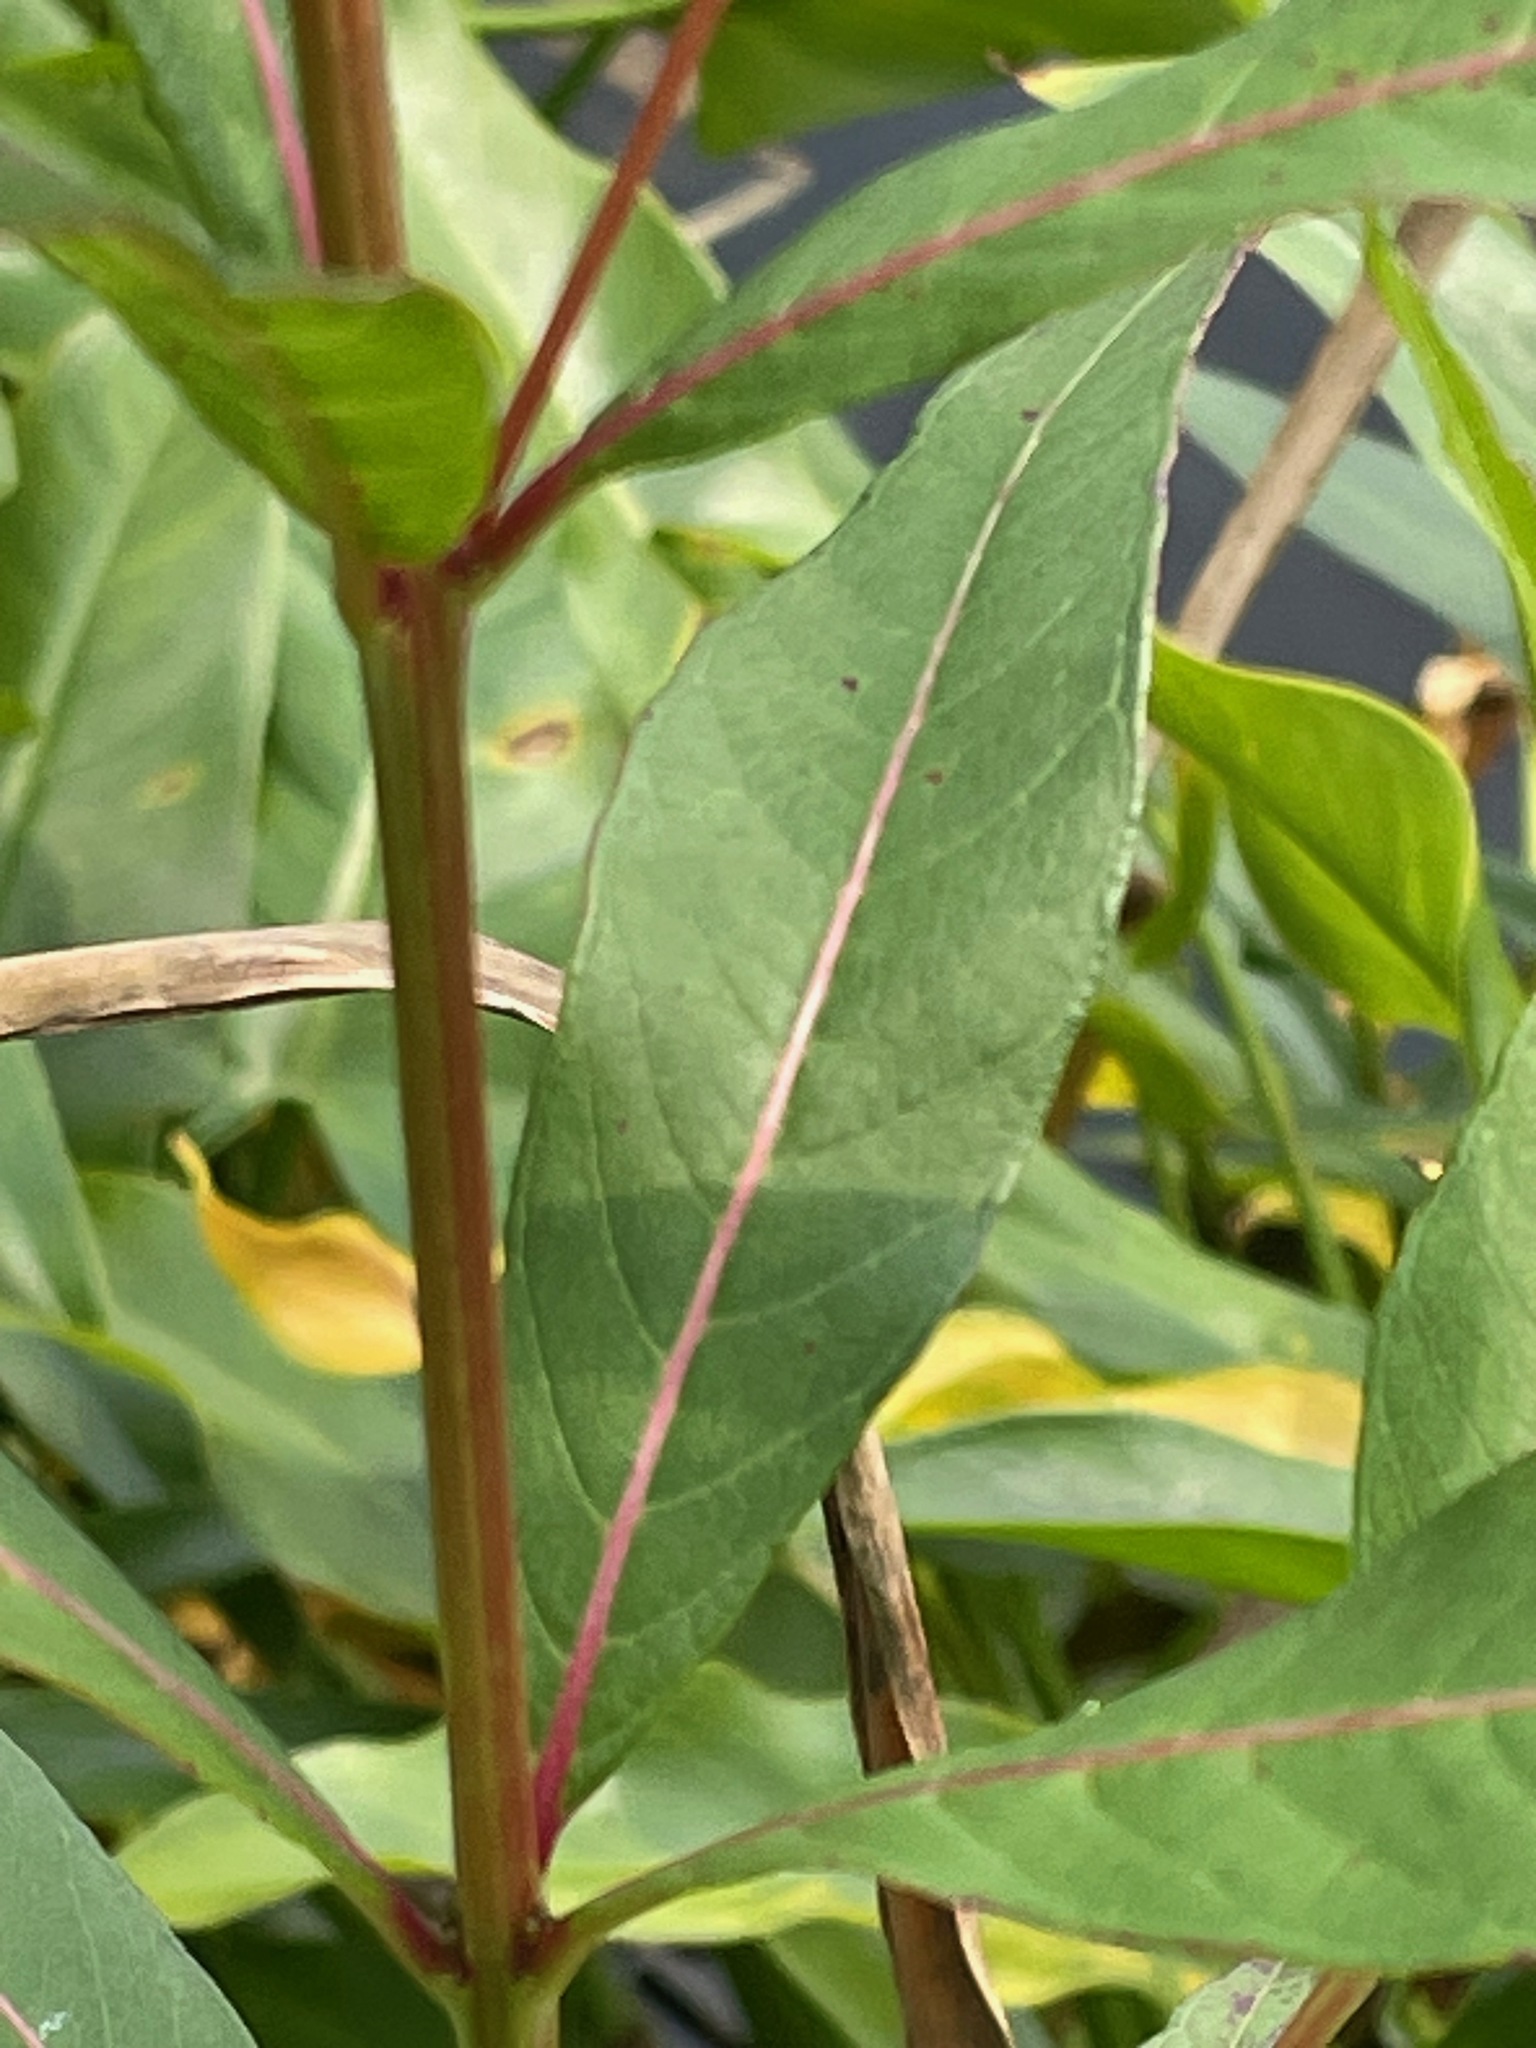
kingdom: Plantae
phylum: Tracheophyta
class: Magnoliopsida
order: Myrtales
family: Lythraceae
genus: Decodon
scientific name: Decodon verticillatus
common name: Hairy swamp loosestrife
